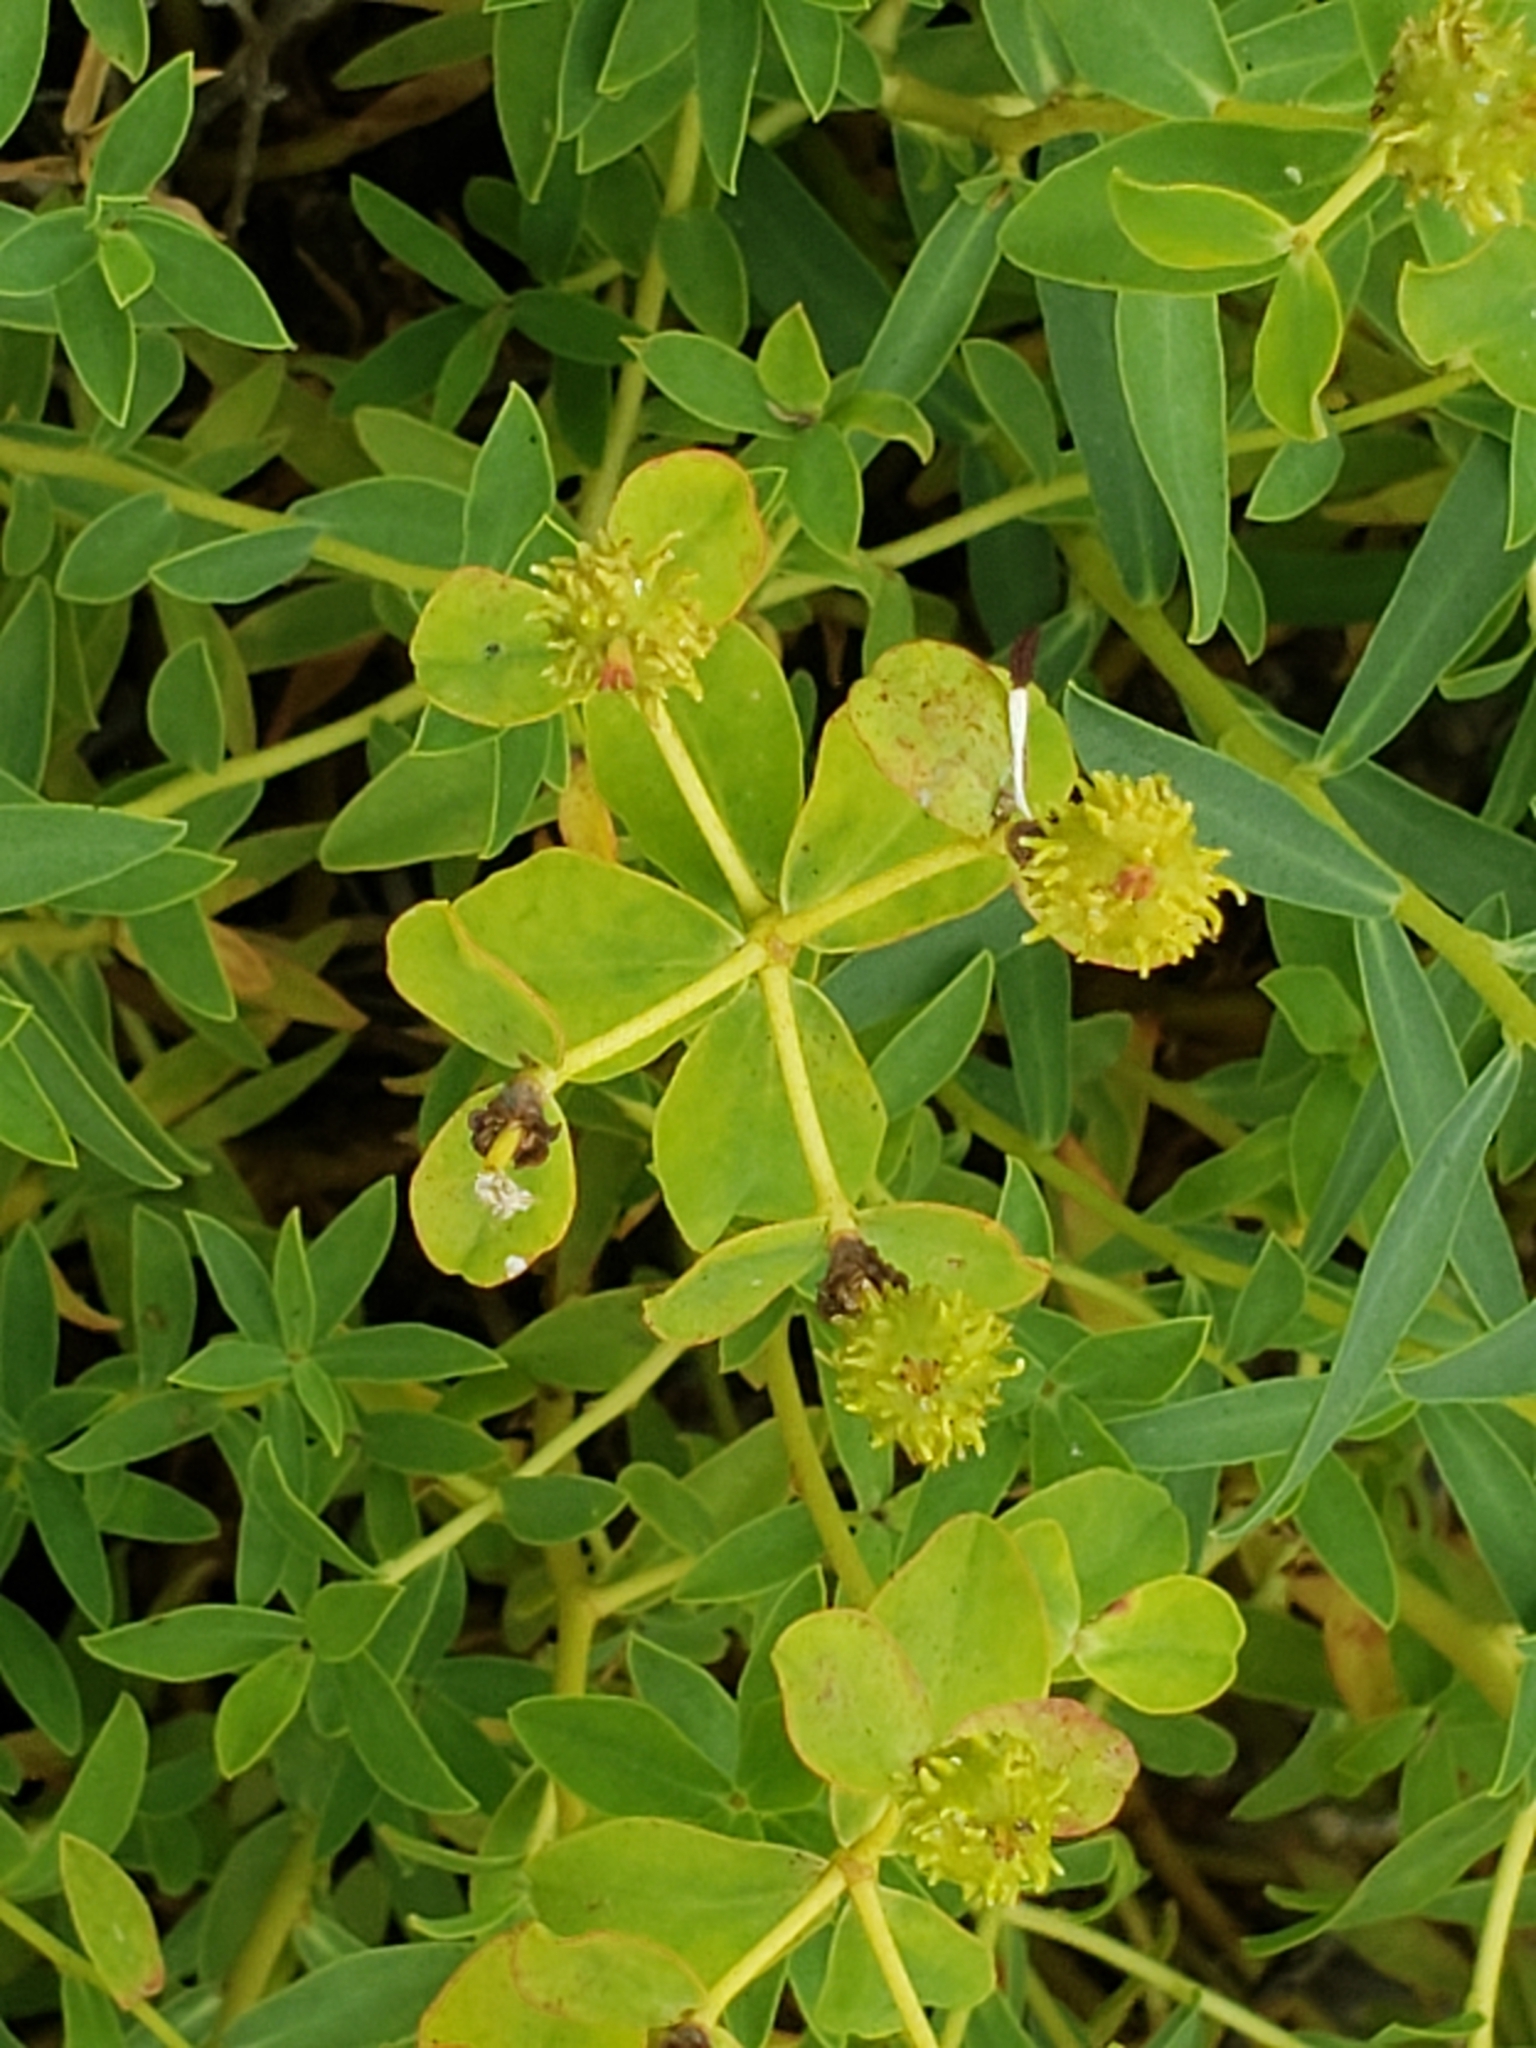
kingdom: Plantae
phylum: Tracheophyta
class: Magnoliopsida
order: Malpighiales
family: Euphorbiaceae
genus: Euphorbia
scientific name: Euphorbia spinosa
